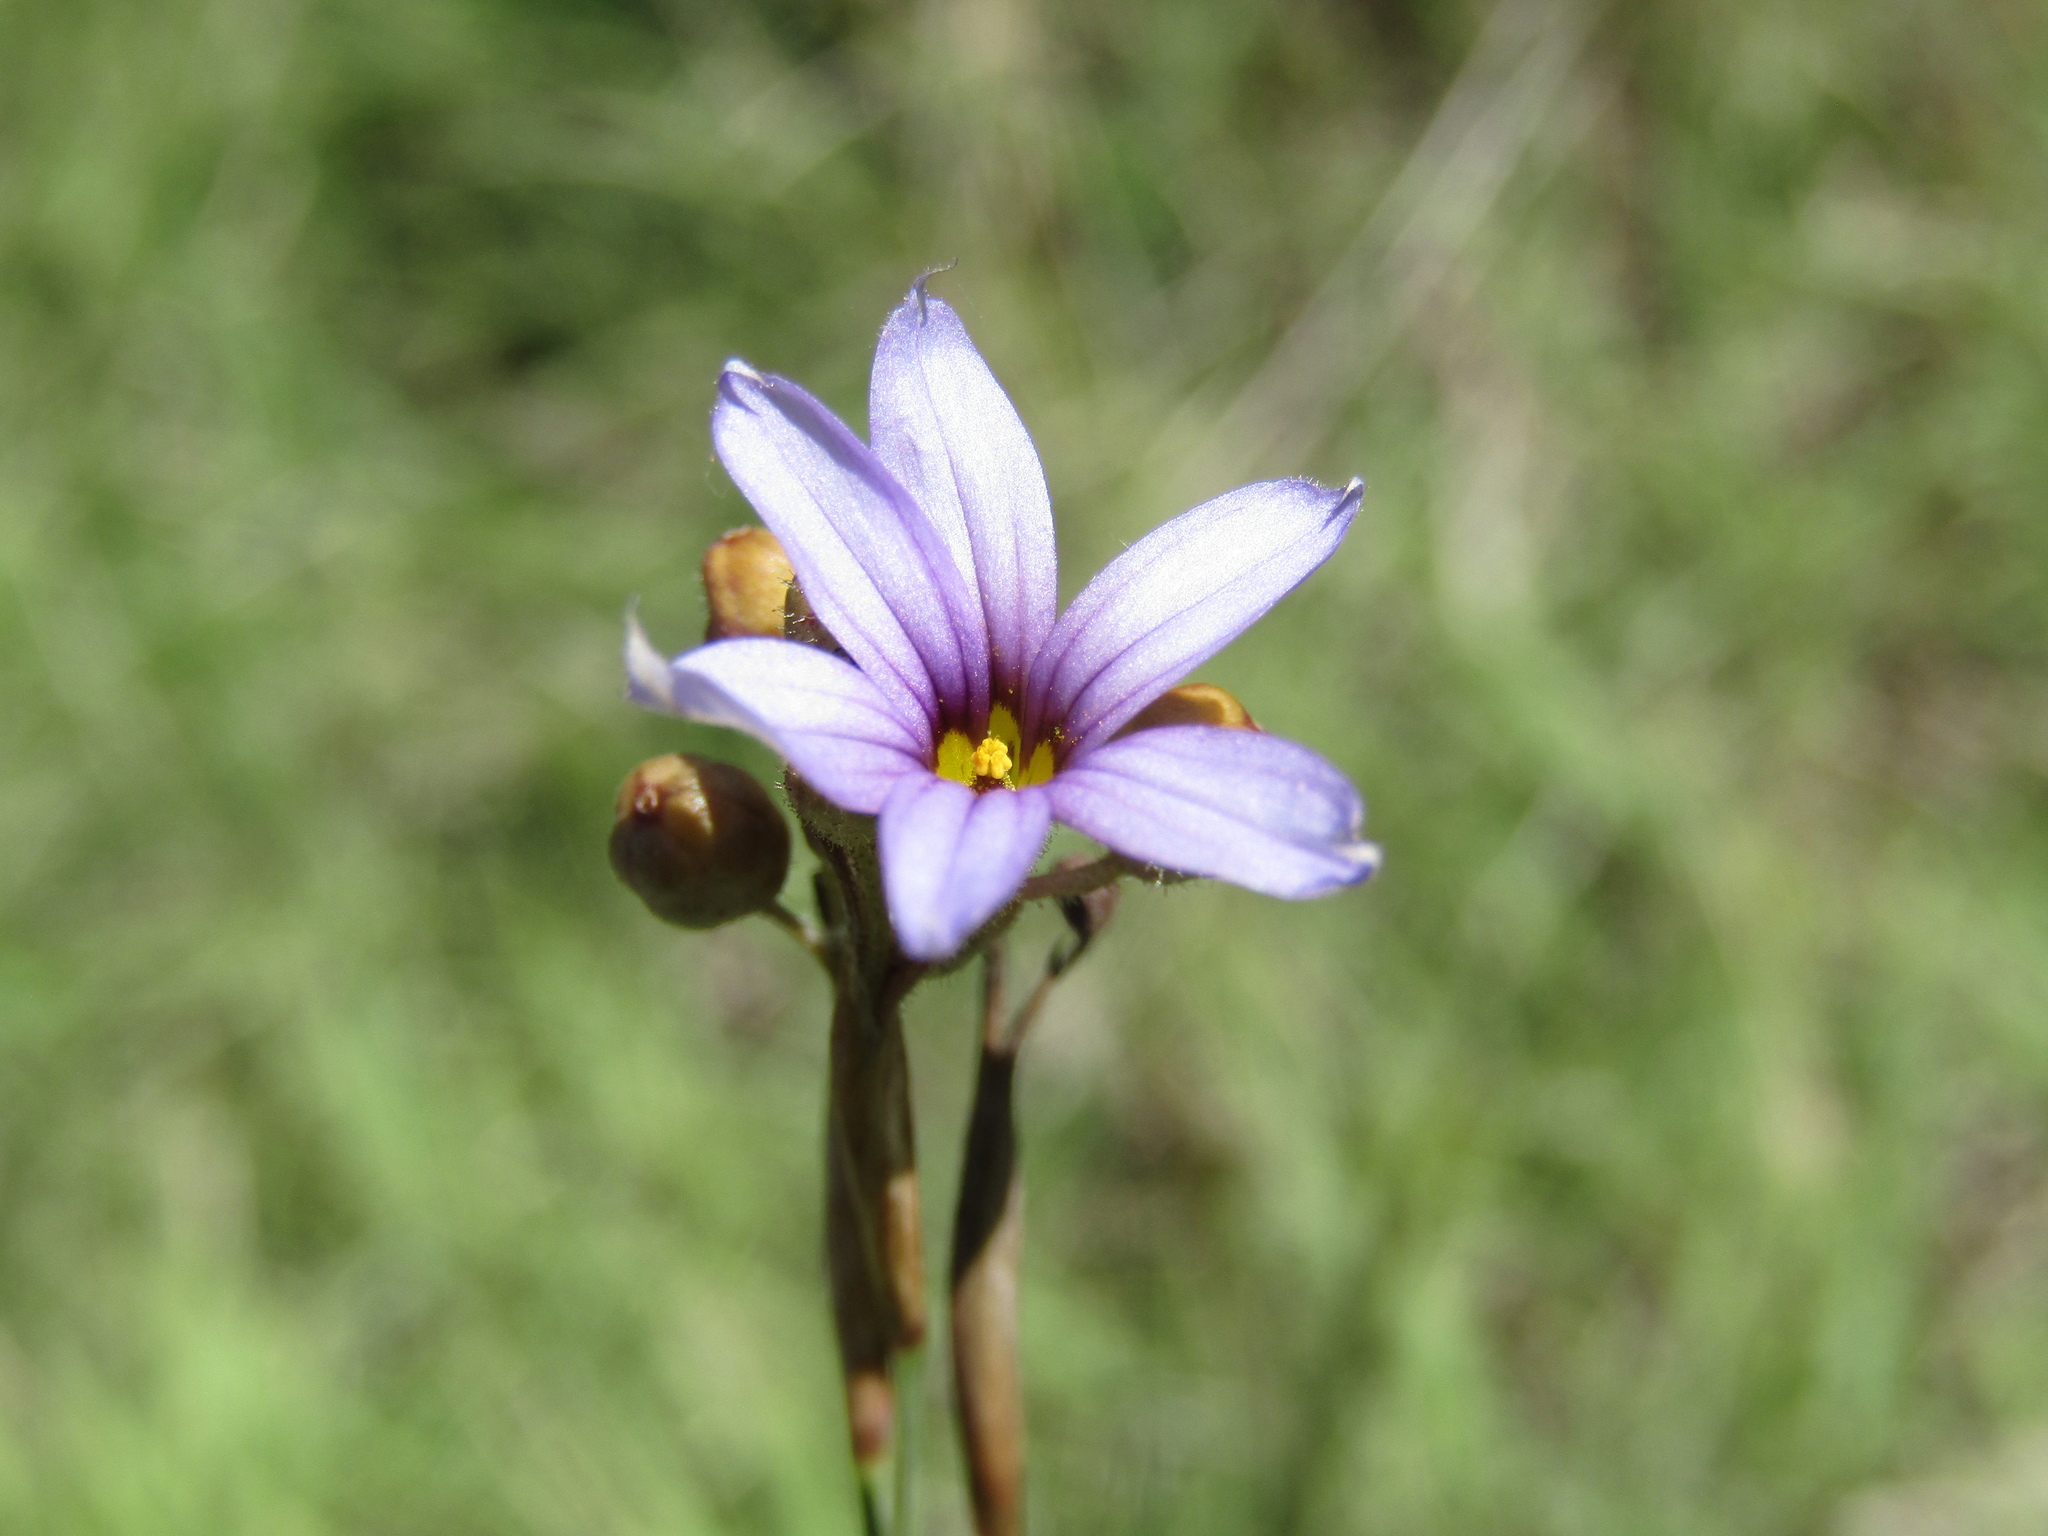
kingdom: Plantae
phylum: Tracheophyta
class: Liliopsida
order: Asparagales
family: Iridaceae
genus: Sisyrinchium
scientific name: Sisyrinchium platense
